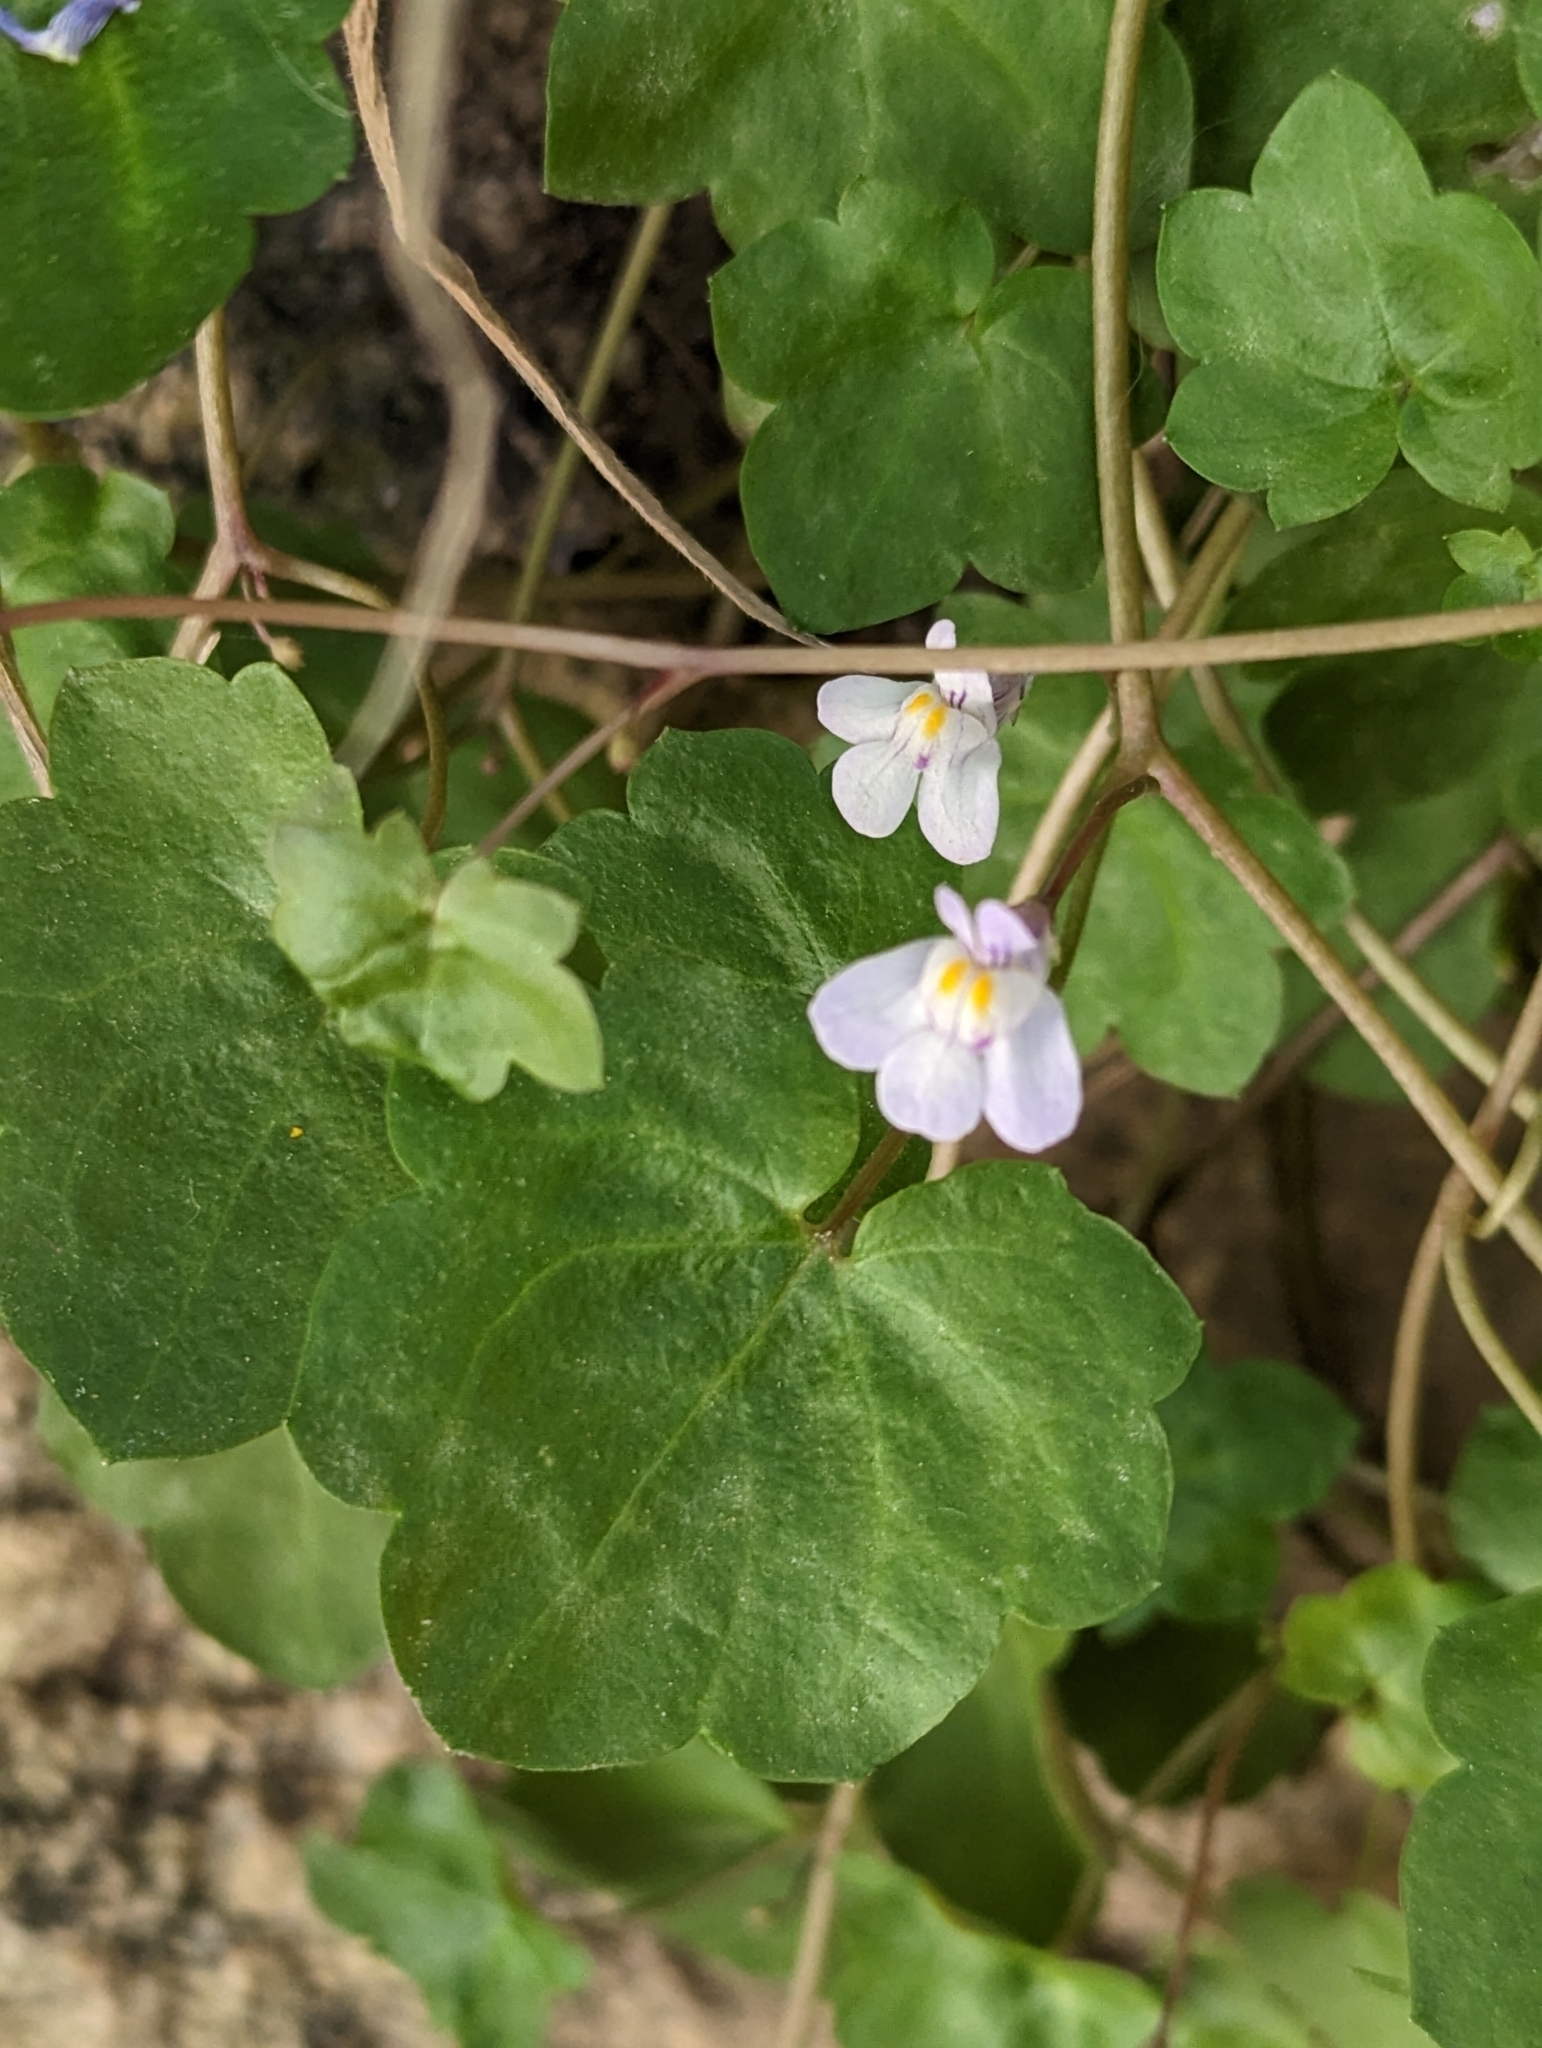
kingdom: Plantae
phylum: Tracheophyta
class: Magnoliopsida
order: Lamiales
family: Plantaginaceae
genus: Cymbalaria
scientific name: Cymbalaria muralis
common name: Ivy-leaved toadflax
